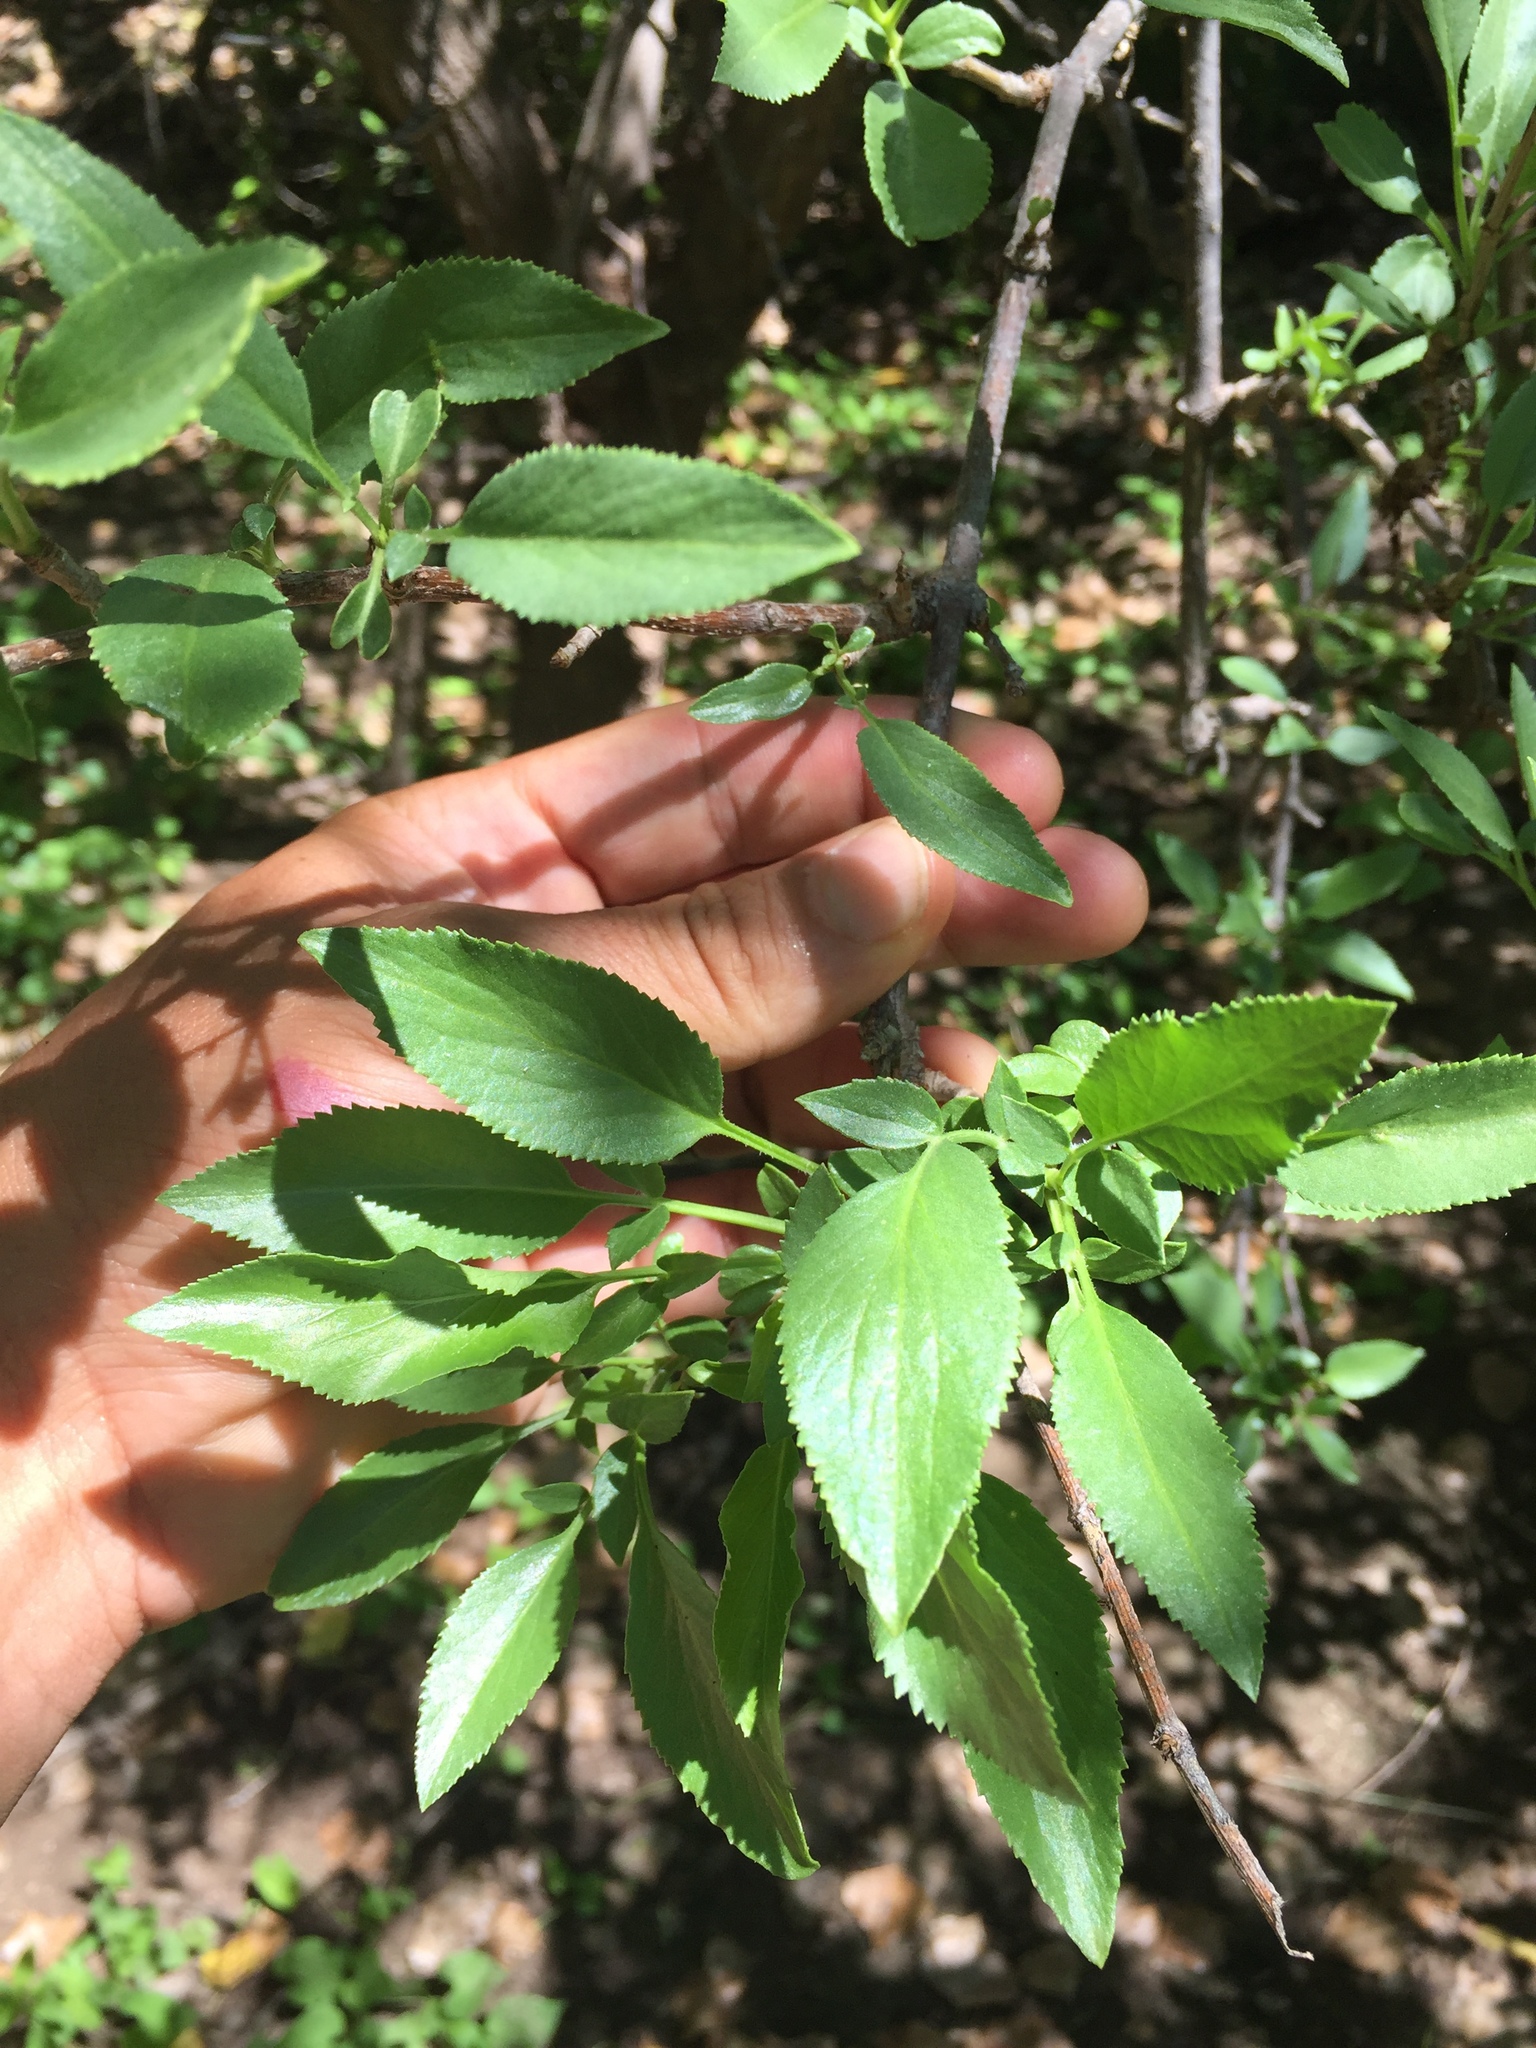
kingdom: Plantae
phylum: Tracheophyta
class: Magnoliopsida
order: Dipsacales
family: Viburnaceae
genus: Sambucus
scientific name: Sambucus cerulea
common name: Blue elder
